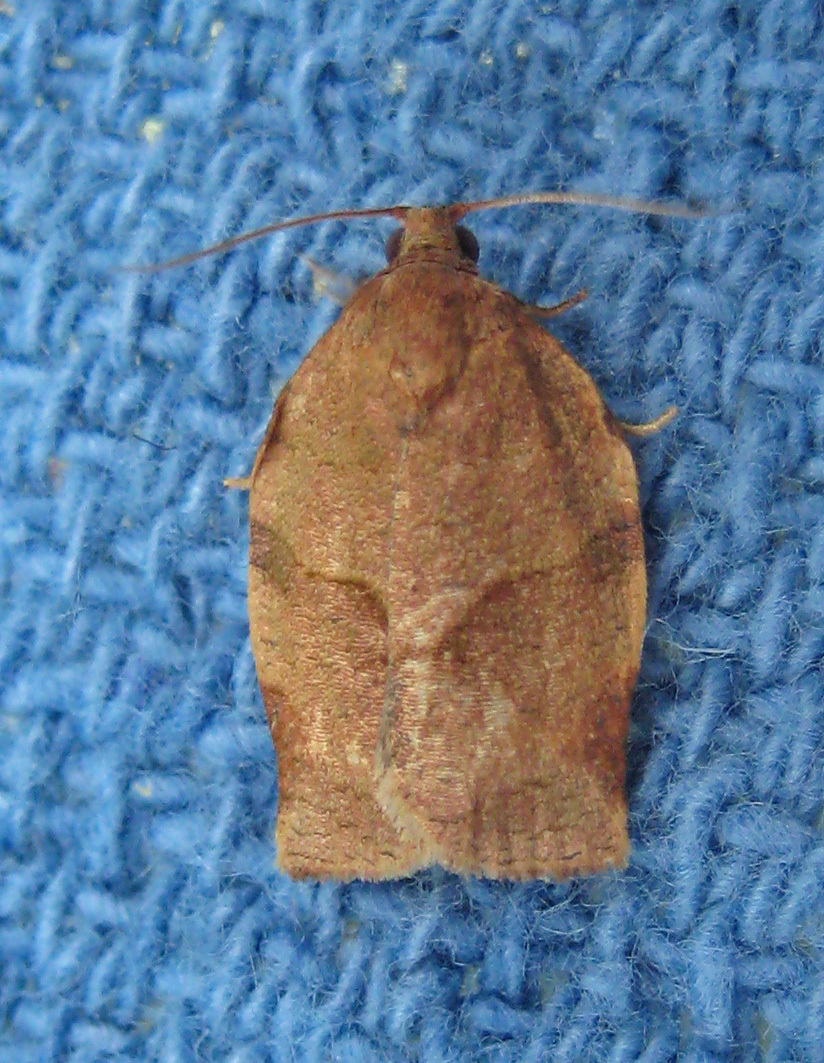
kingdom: Animalia
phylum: Arthropoda
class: Insecta
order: Lepidoptera
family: Tortricidae
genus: Choristoneura
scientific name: Choristoneura rosaceana
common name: Oblique-banded leafroller moth
